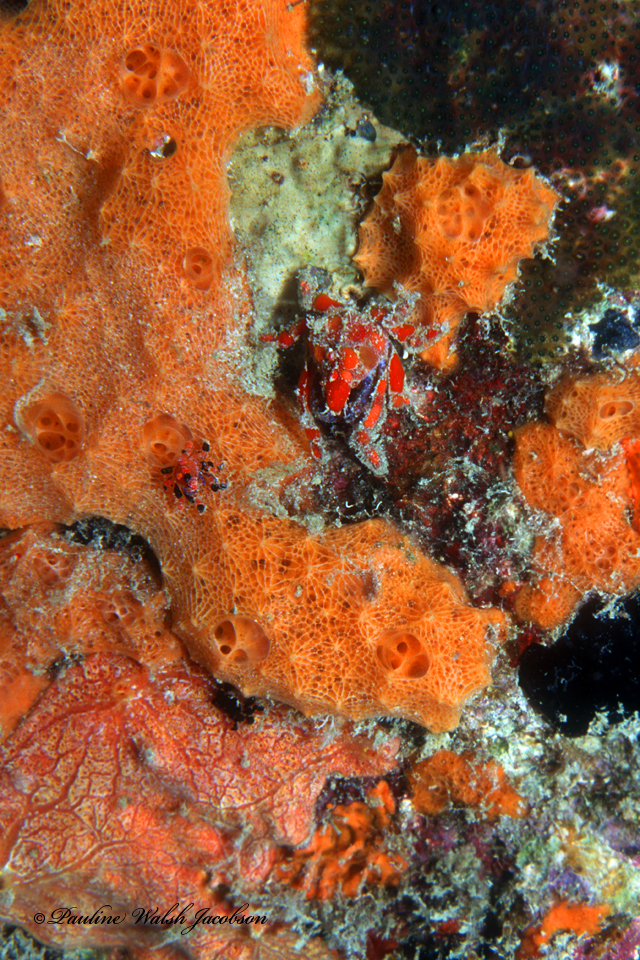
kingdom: Animalia
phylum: Arthropoda
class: Malacostraca
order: Decapoda
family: Epialtidae
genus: Pelia
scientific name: Pelia mutica
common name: Cryptic teardrop crab
